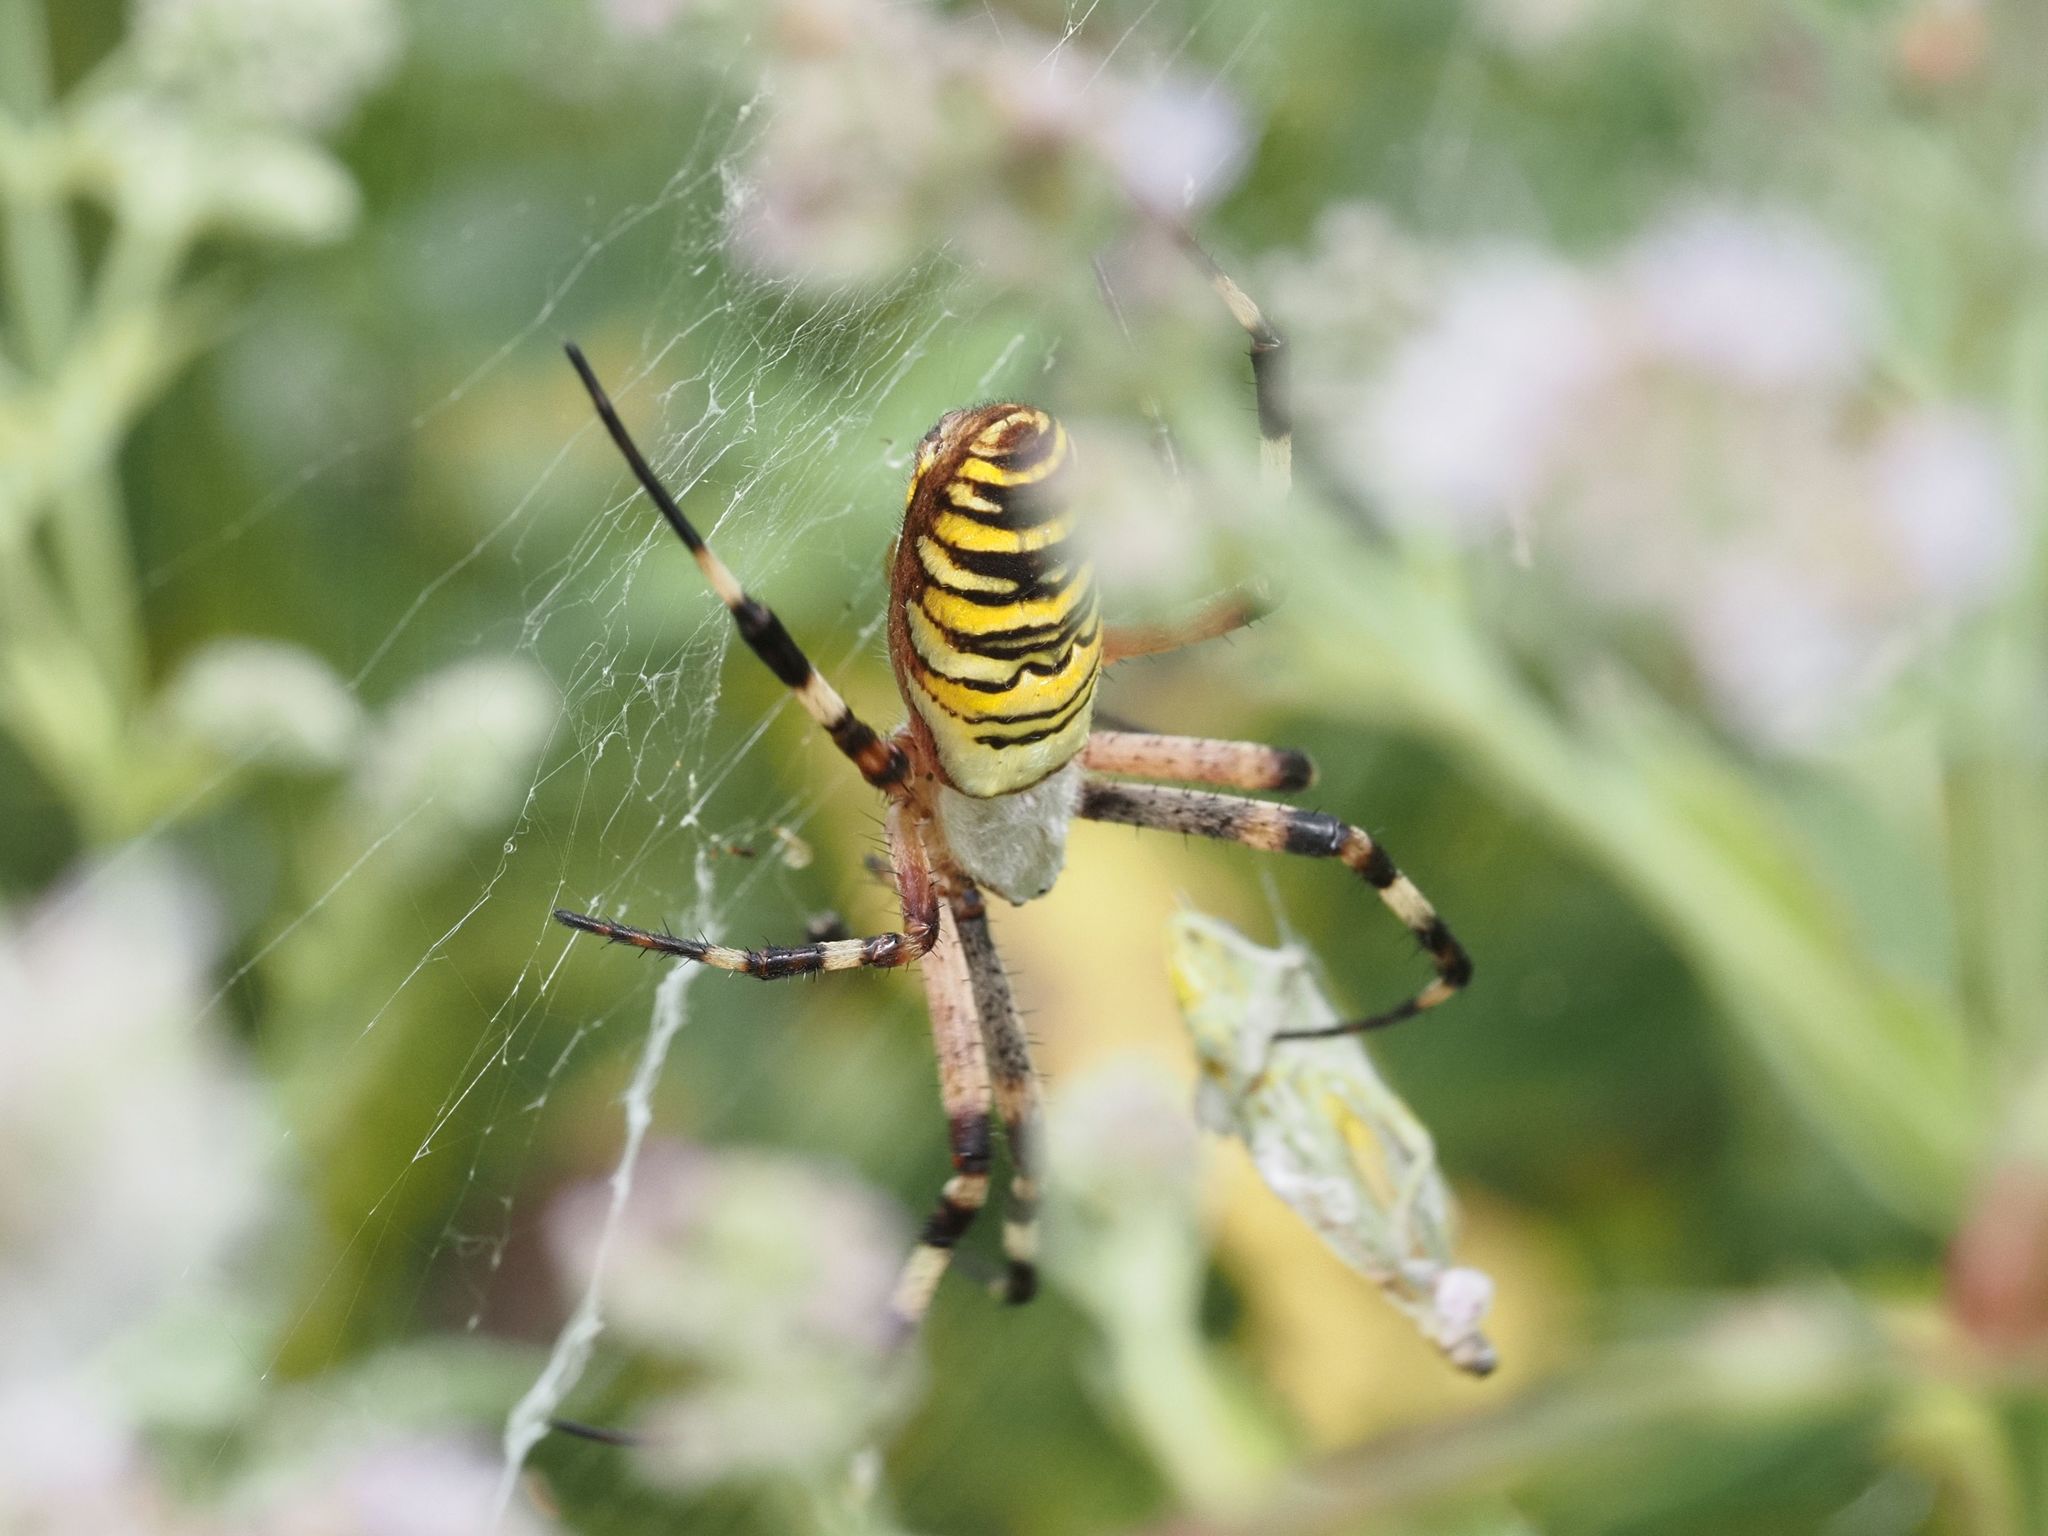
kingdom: Animalia
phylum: Arthropoda
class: Arachnida
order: Araneae
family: Araneidae
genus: Argiope
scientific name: Argiope bruennichi
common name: Wasp spider
